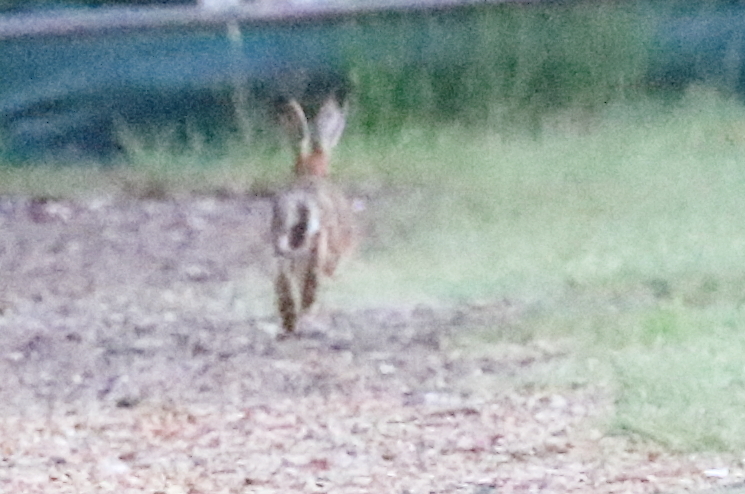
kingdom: Animalia
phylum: Chordata
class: Mammalia
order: Lagomorpha
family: Leporidae
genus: Lepus
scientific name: Lepus europaeus
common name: European hare
